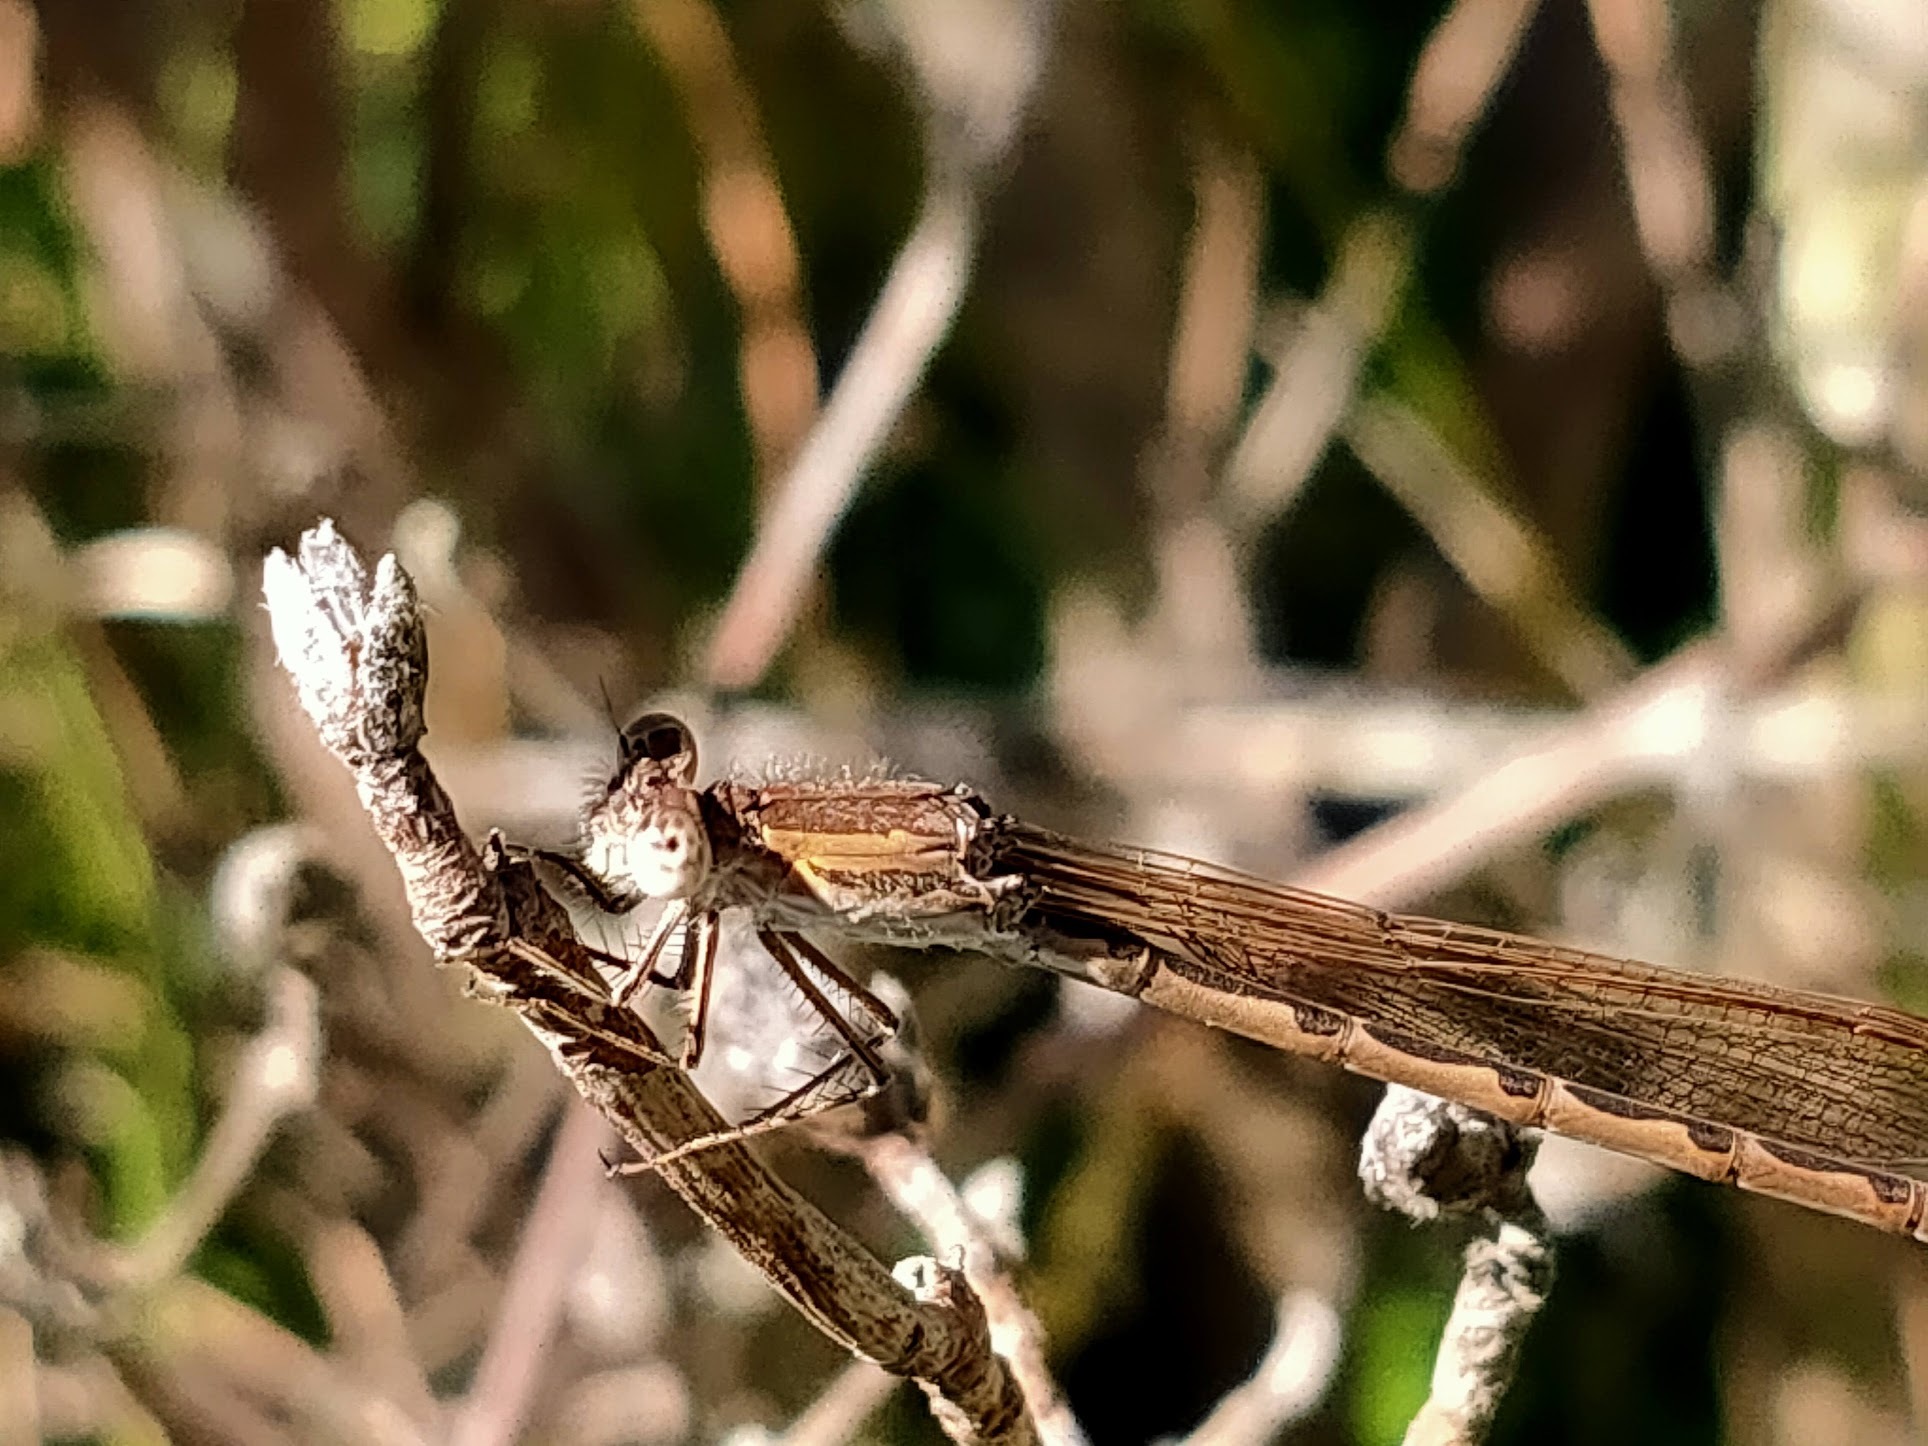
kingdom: Animalia
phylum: Arthropoda
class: Insecta
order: Odonata
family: Lestidae
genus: Sympecma
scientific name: Sympecma paedisca
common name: Siberian winter damsel
